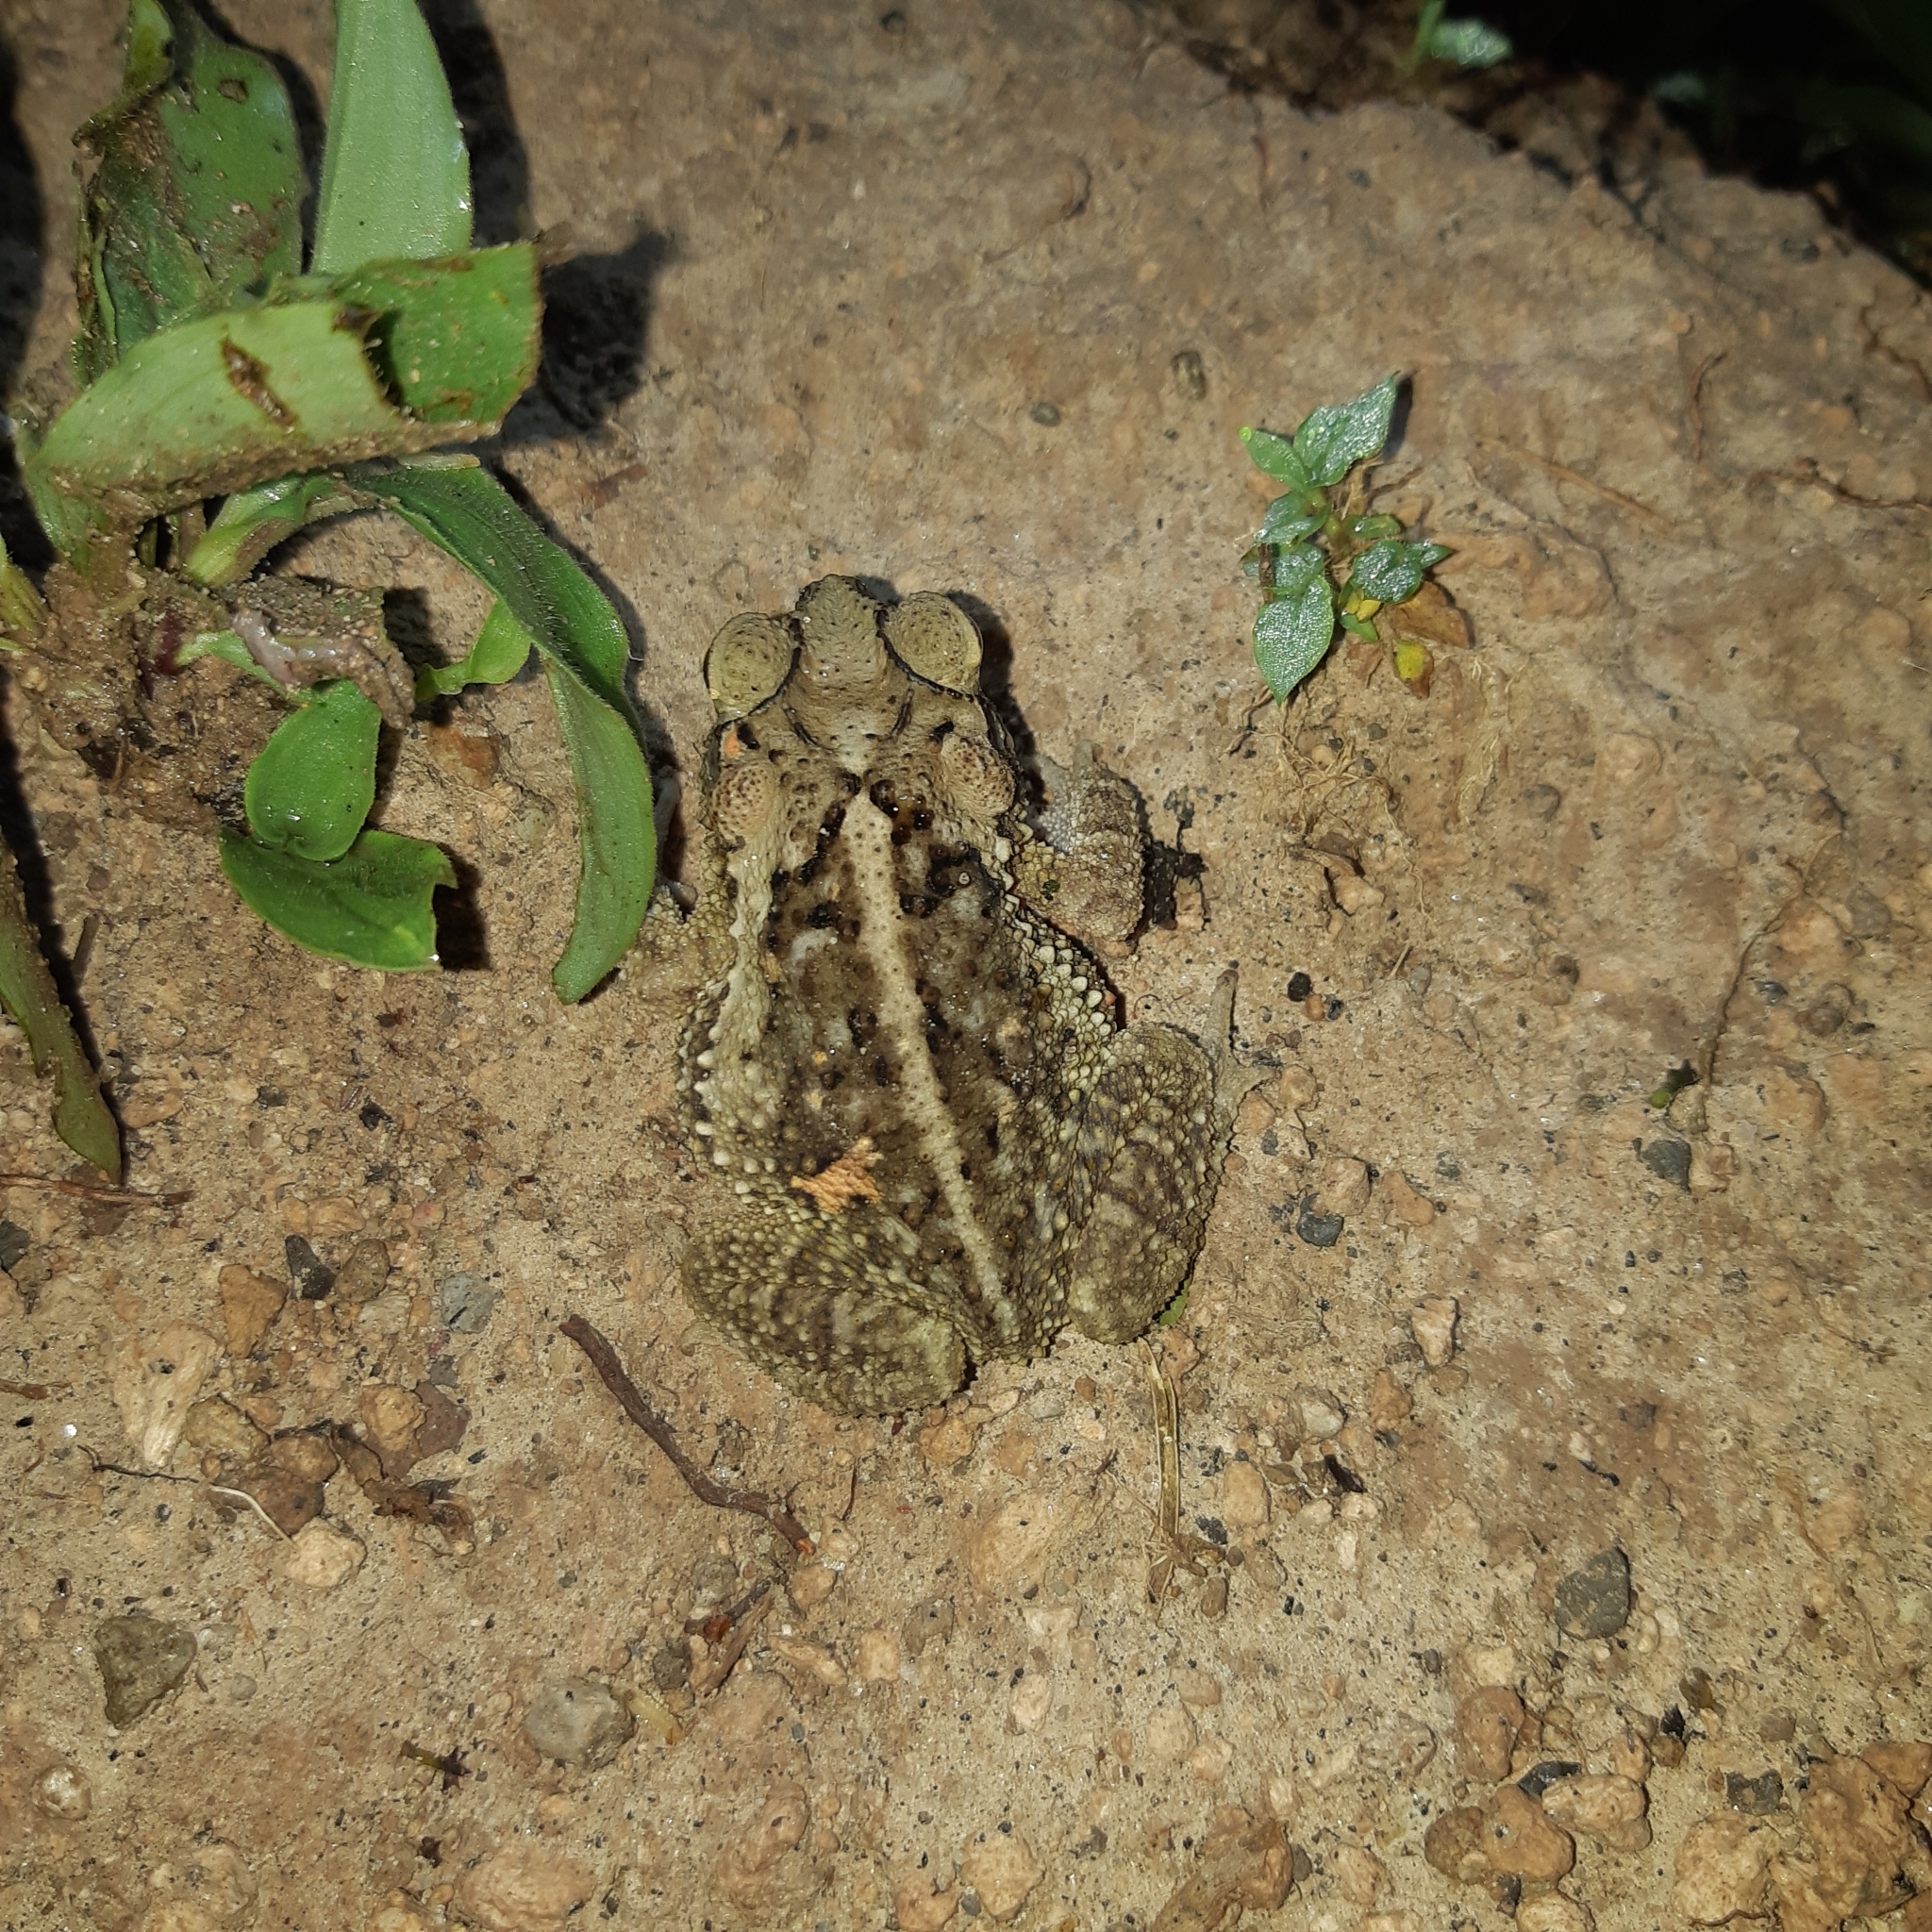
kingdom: Animalia
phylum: Chordata
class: Amphibia
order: Anura
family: Bufonidae
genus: Incilius
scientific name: Incilius luetkenii
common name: Yellow toad
